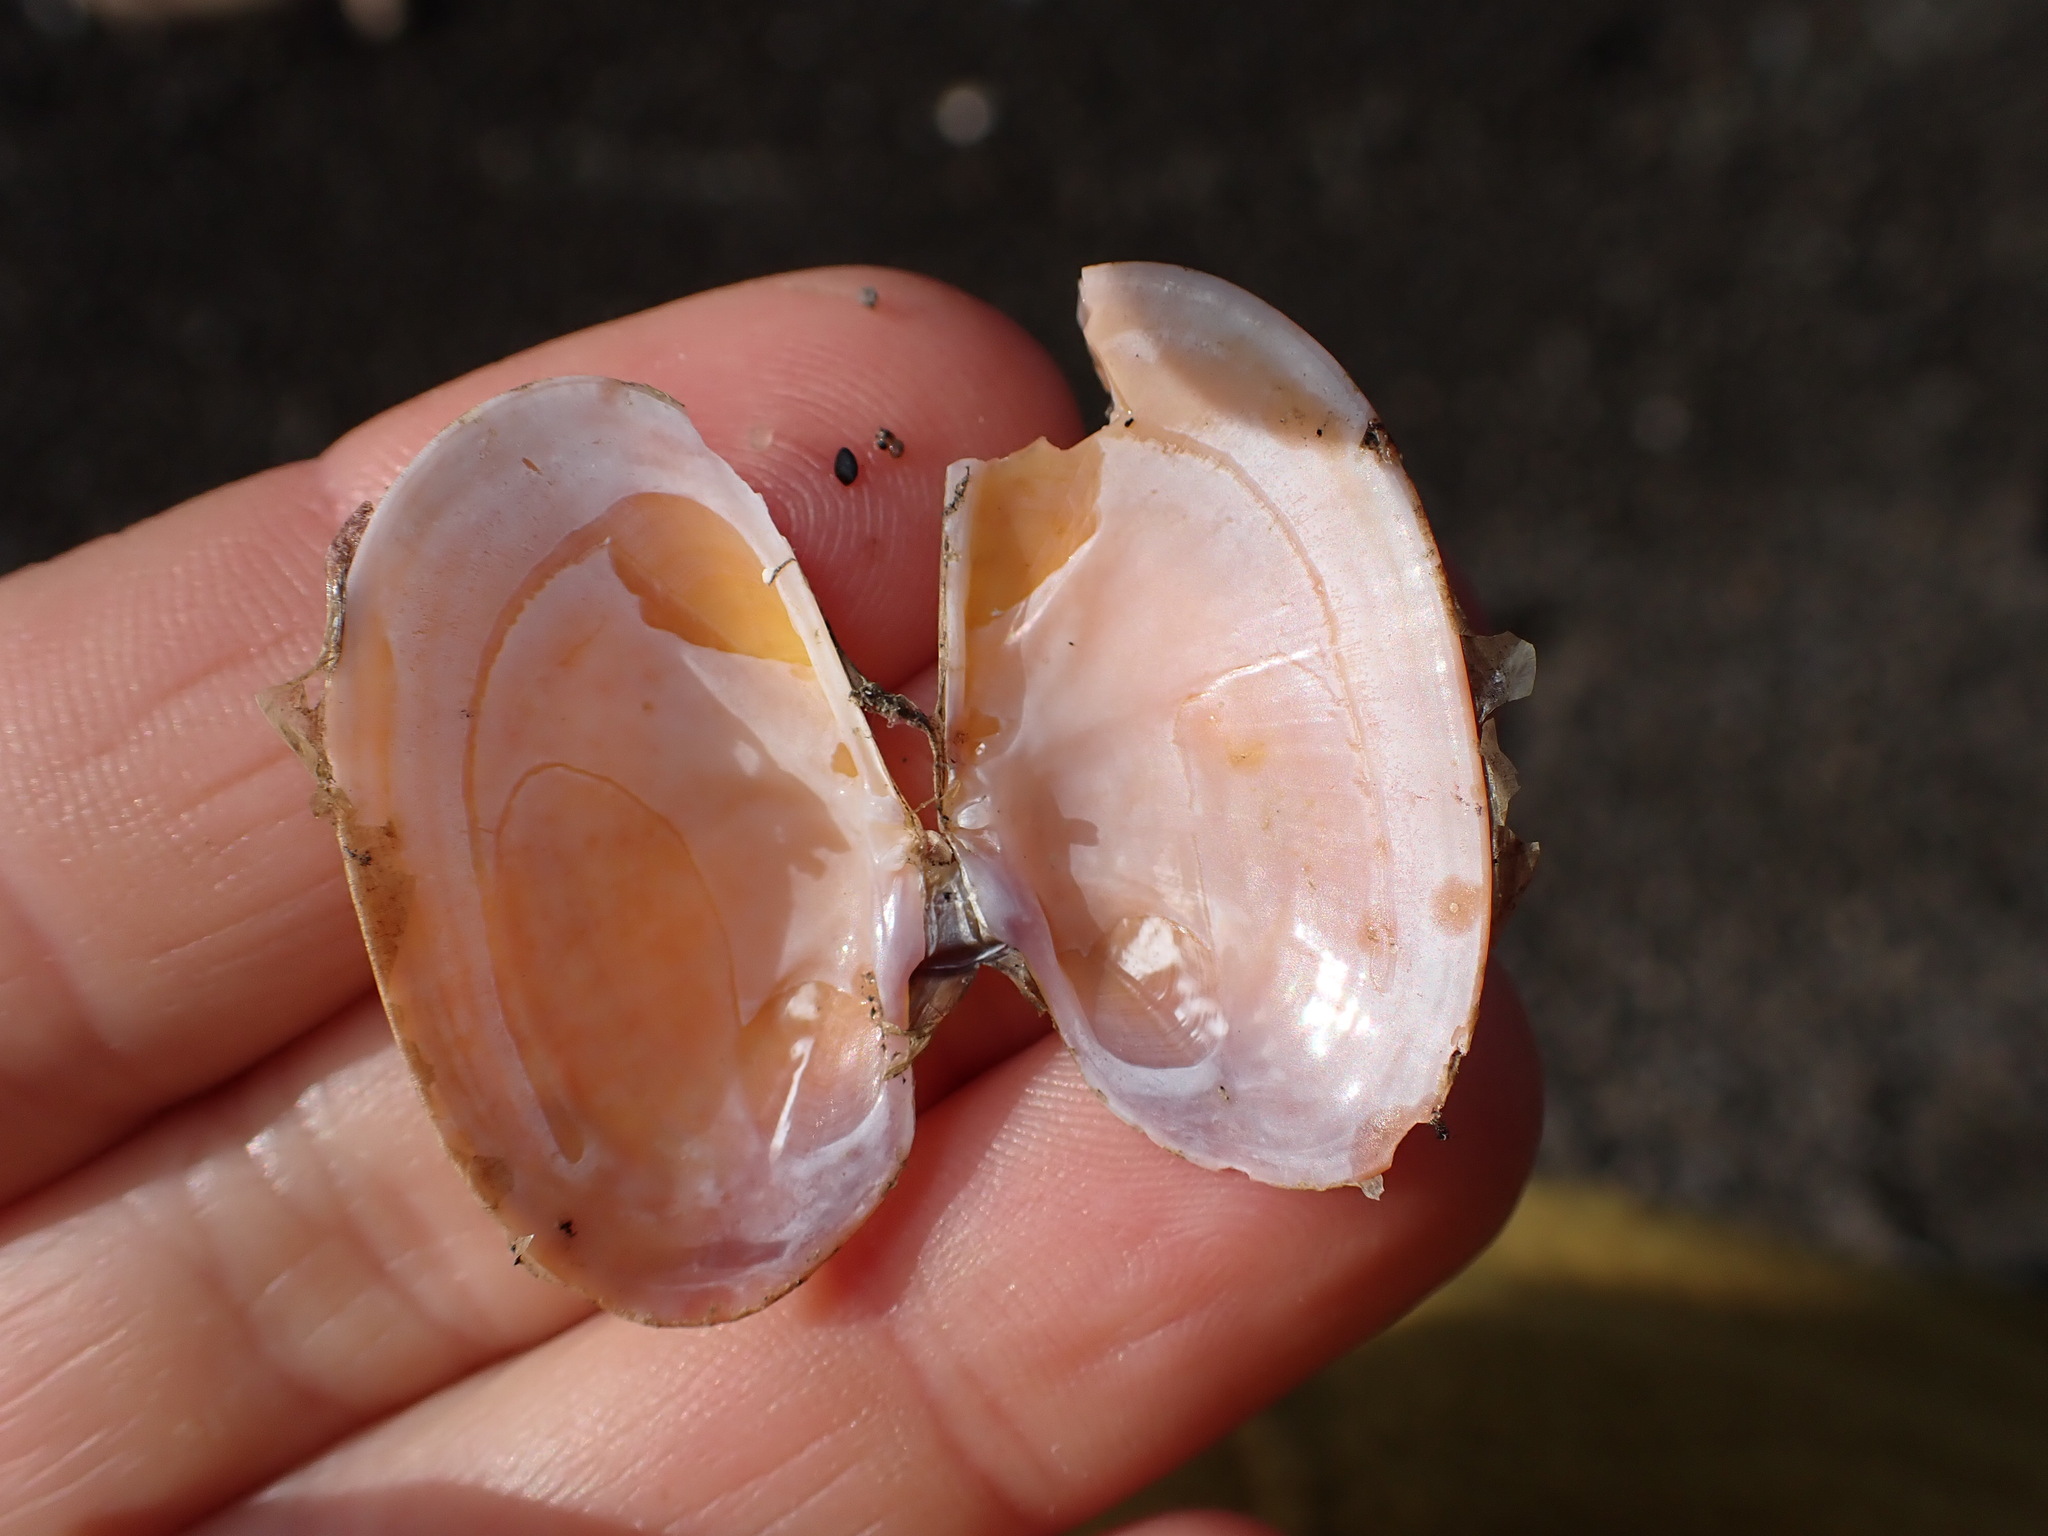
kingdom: Animalia
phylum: Mollusca
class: Bivalvia
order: Cardiida
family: Psammobiidae
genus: Gari
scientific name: Gari stangeri
